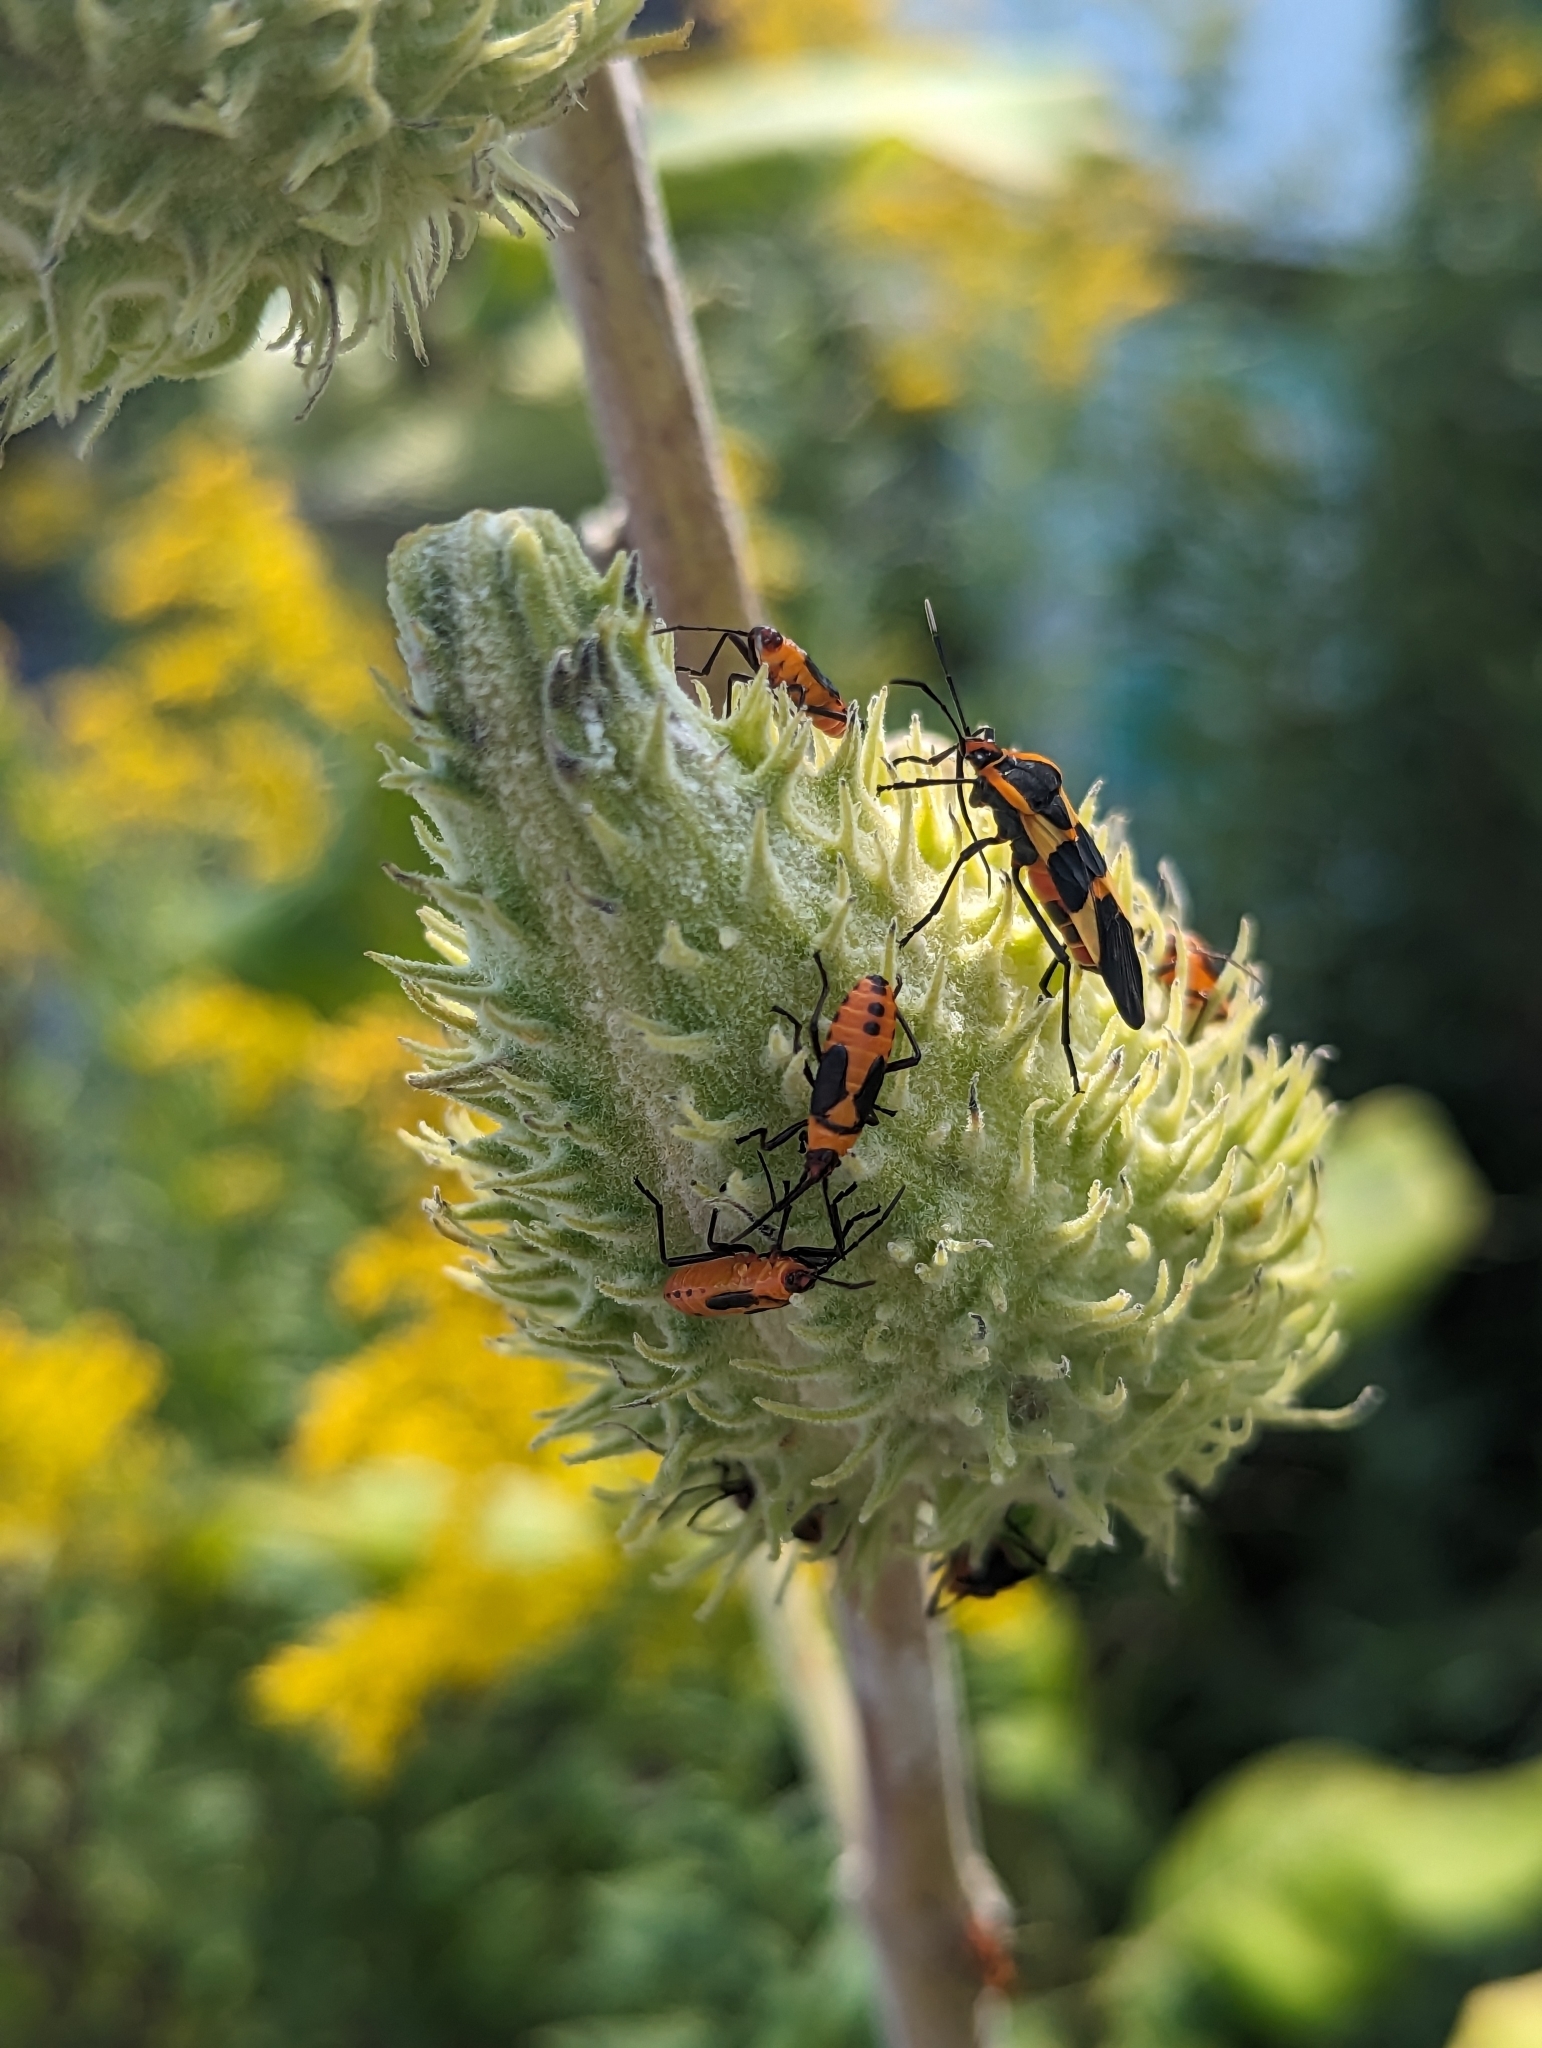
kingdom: Animalia
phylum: Arthropoda
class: Insecta
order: Hemiptera
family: Lygaeidae
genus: Oncopeltus
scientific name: Oncopeltus fasciatus
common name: Large milkweed bug
